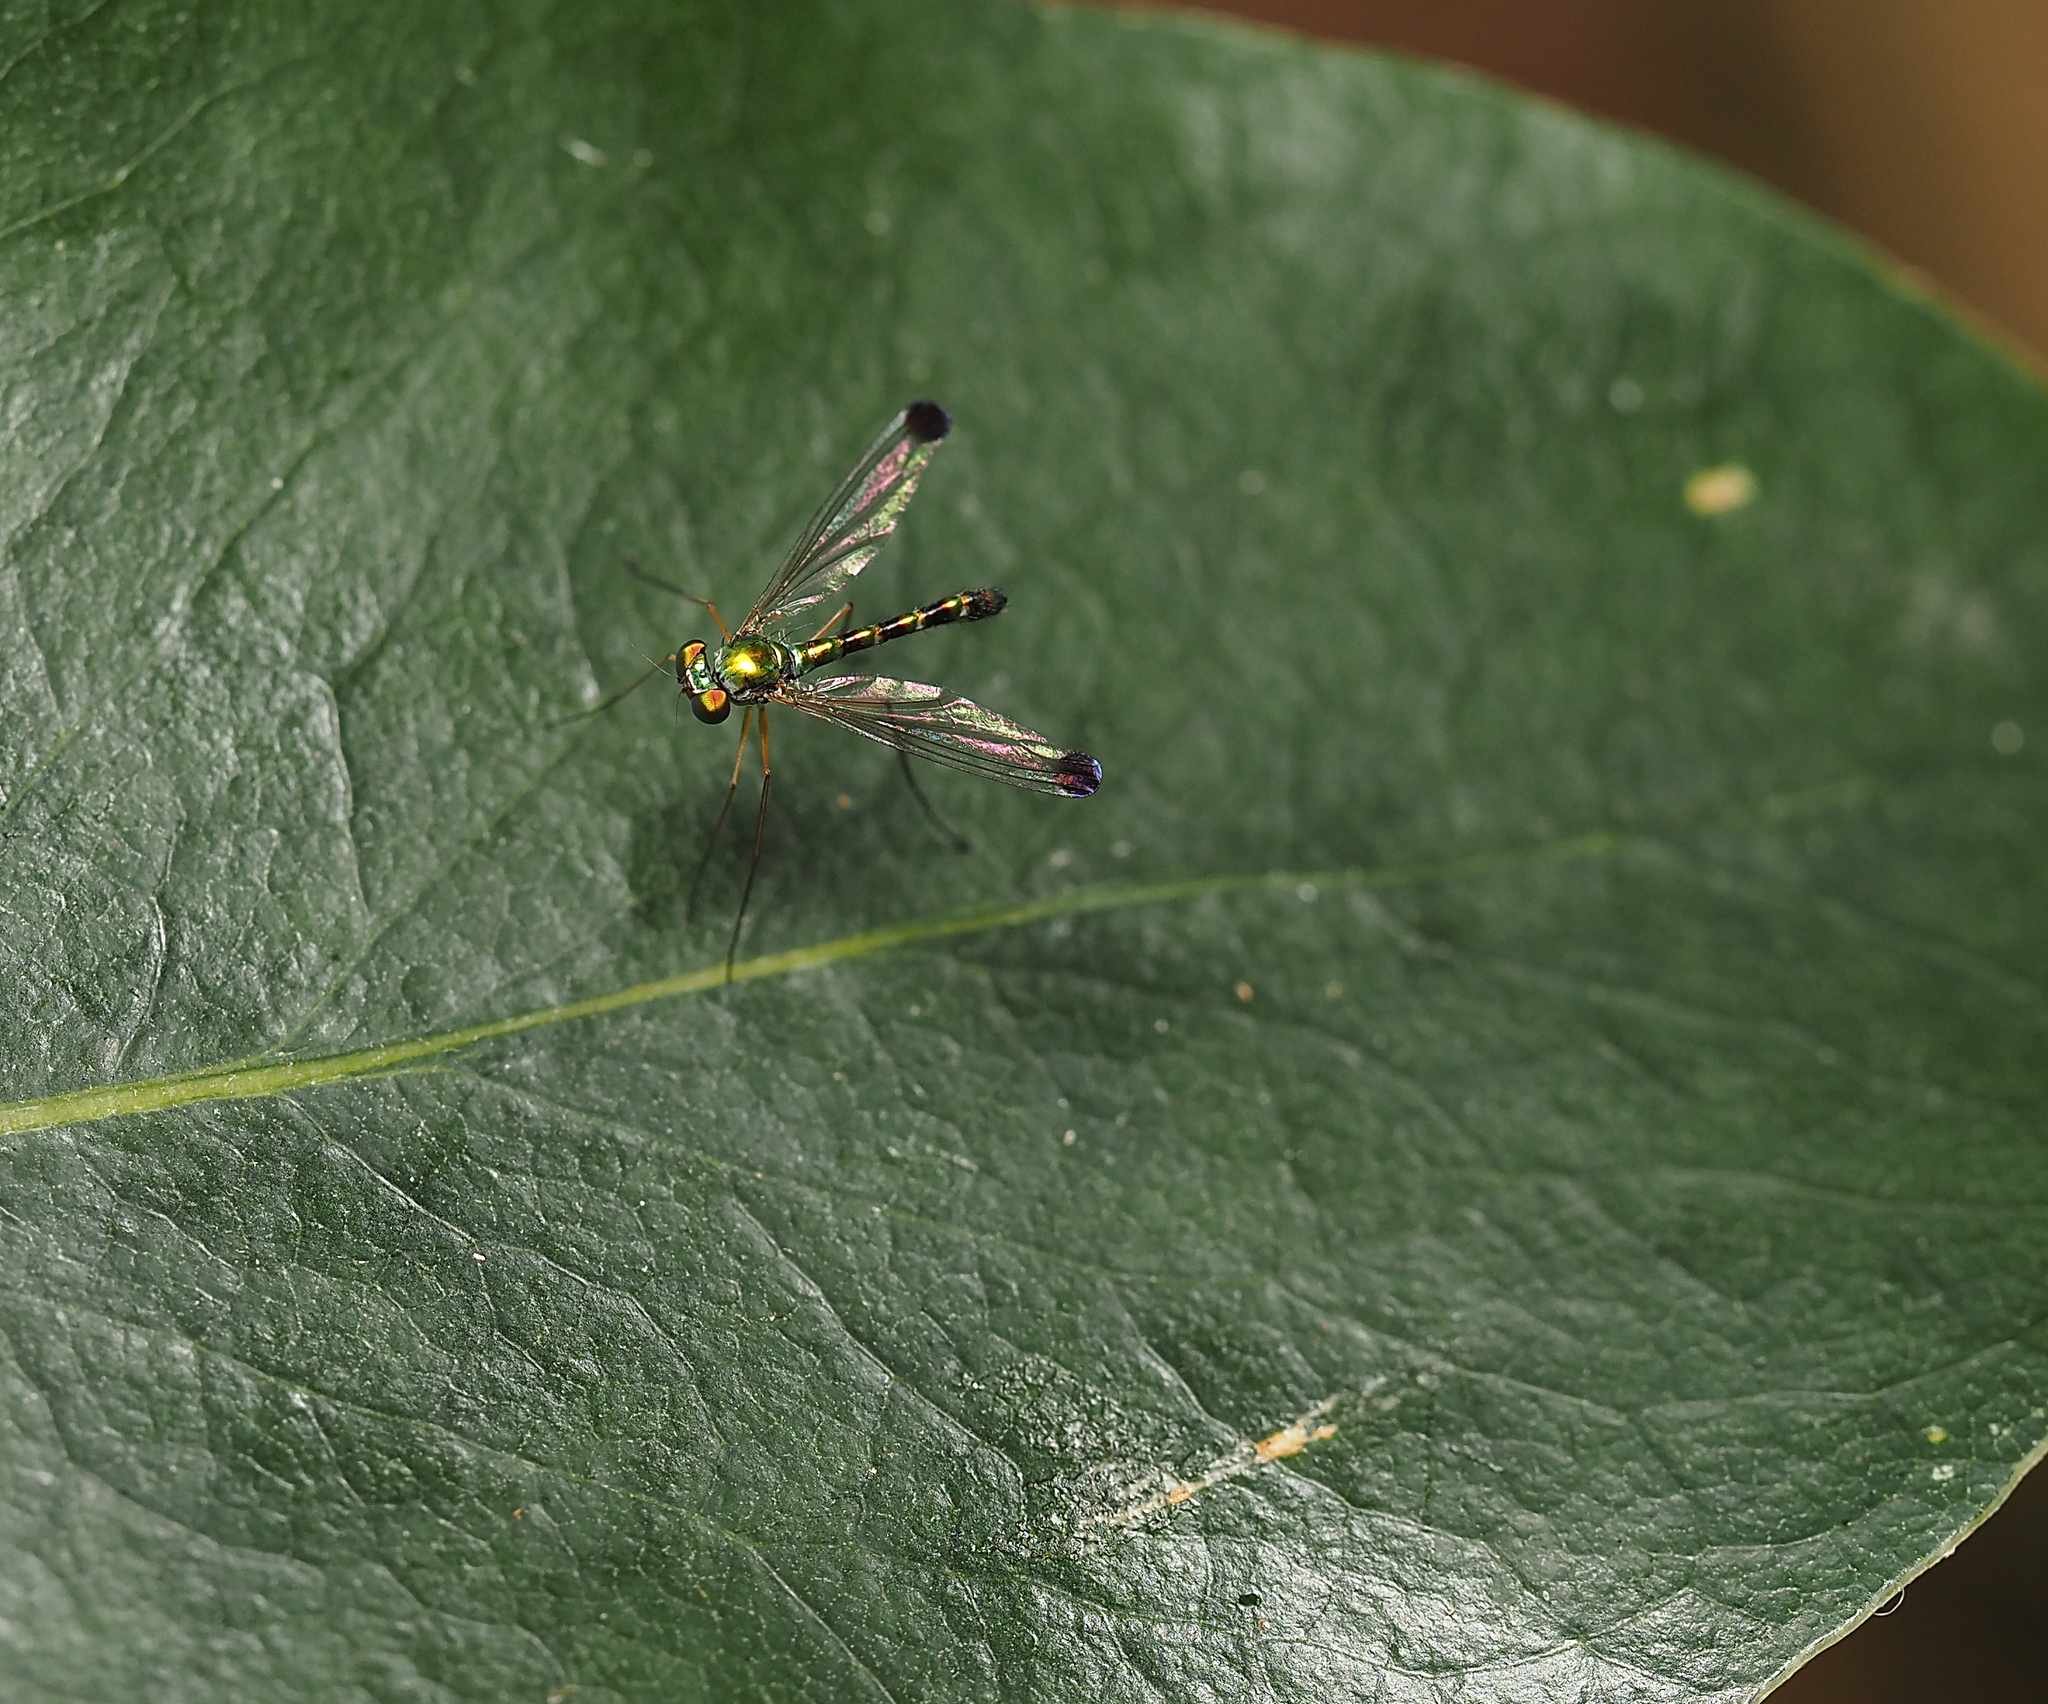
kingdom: Animalia
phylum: Arthropoda
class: Insecta
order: Diptera
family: Dolichopodidae
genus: Amblypsilopus
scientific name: Amblypsilopus zonatus
